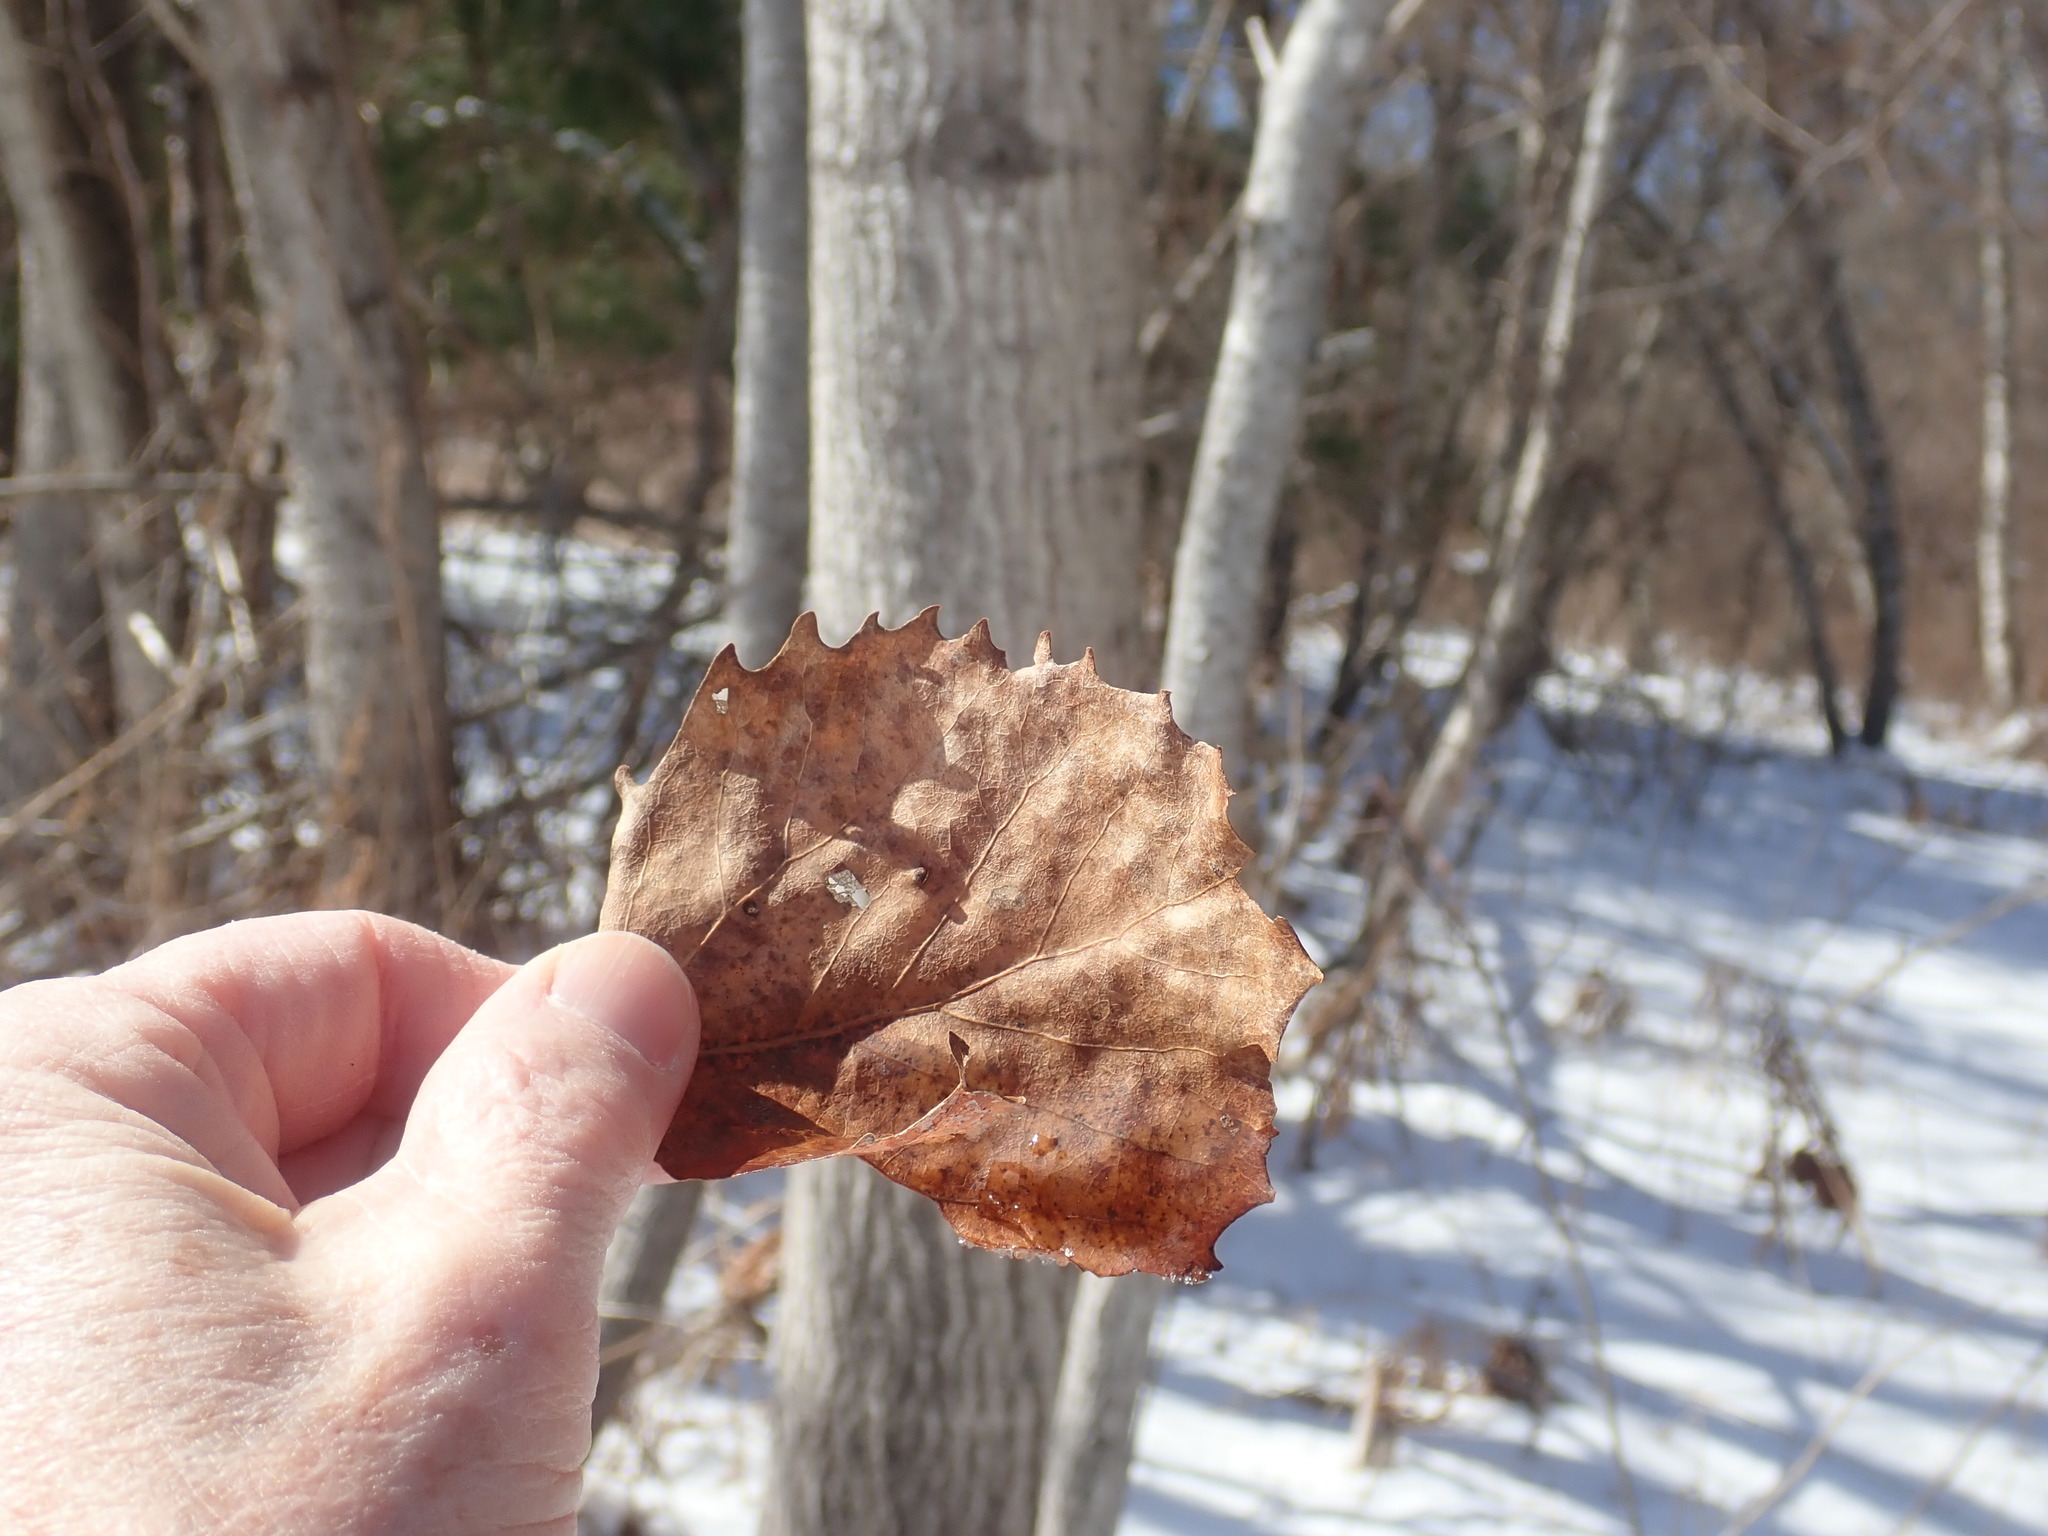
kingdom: Plantae
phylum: Tracheophyta
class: Magnoliopsida
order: Malpighiales
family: Salicaceae
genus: Populus
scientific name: Populus grandidentata
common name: Bigtooth aspen
